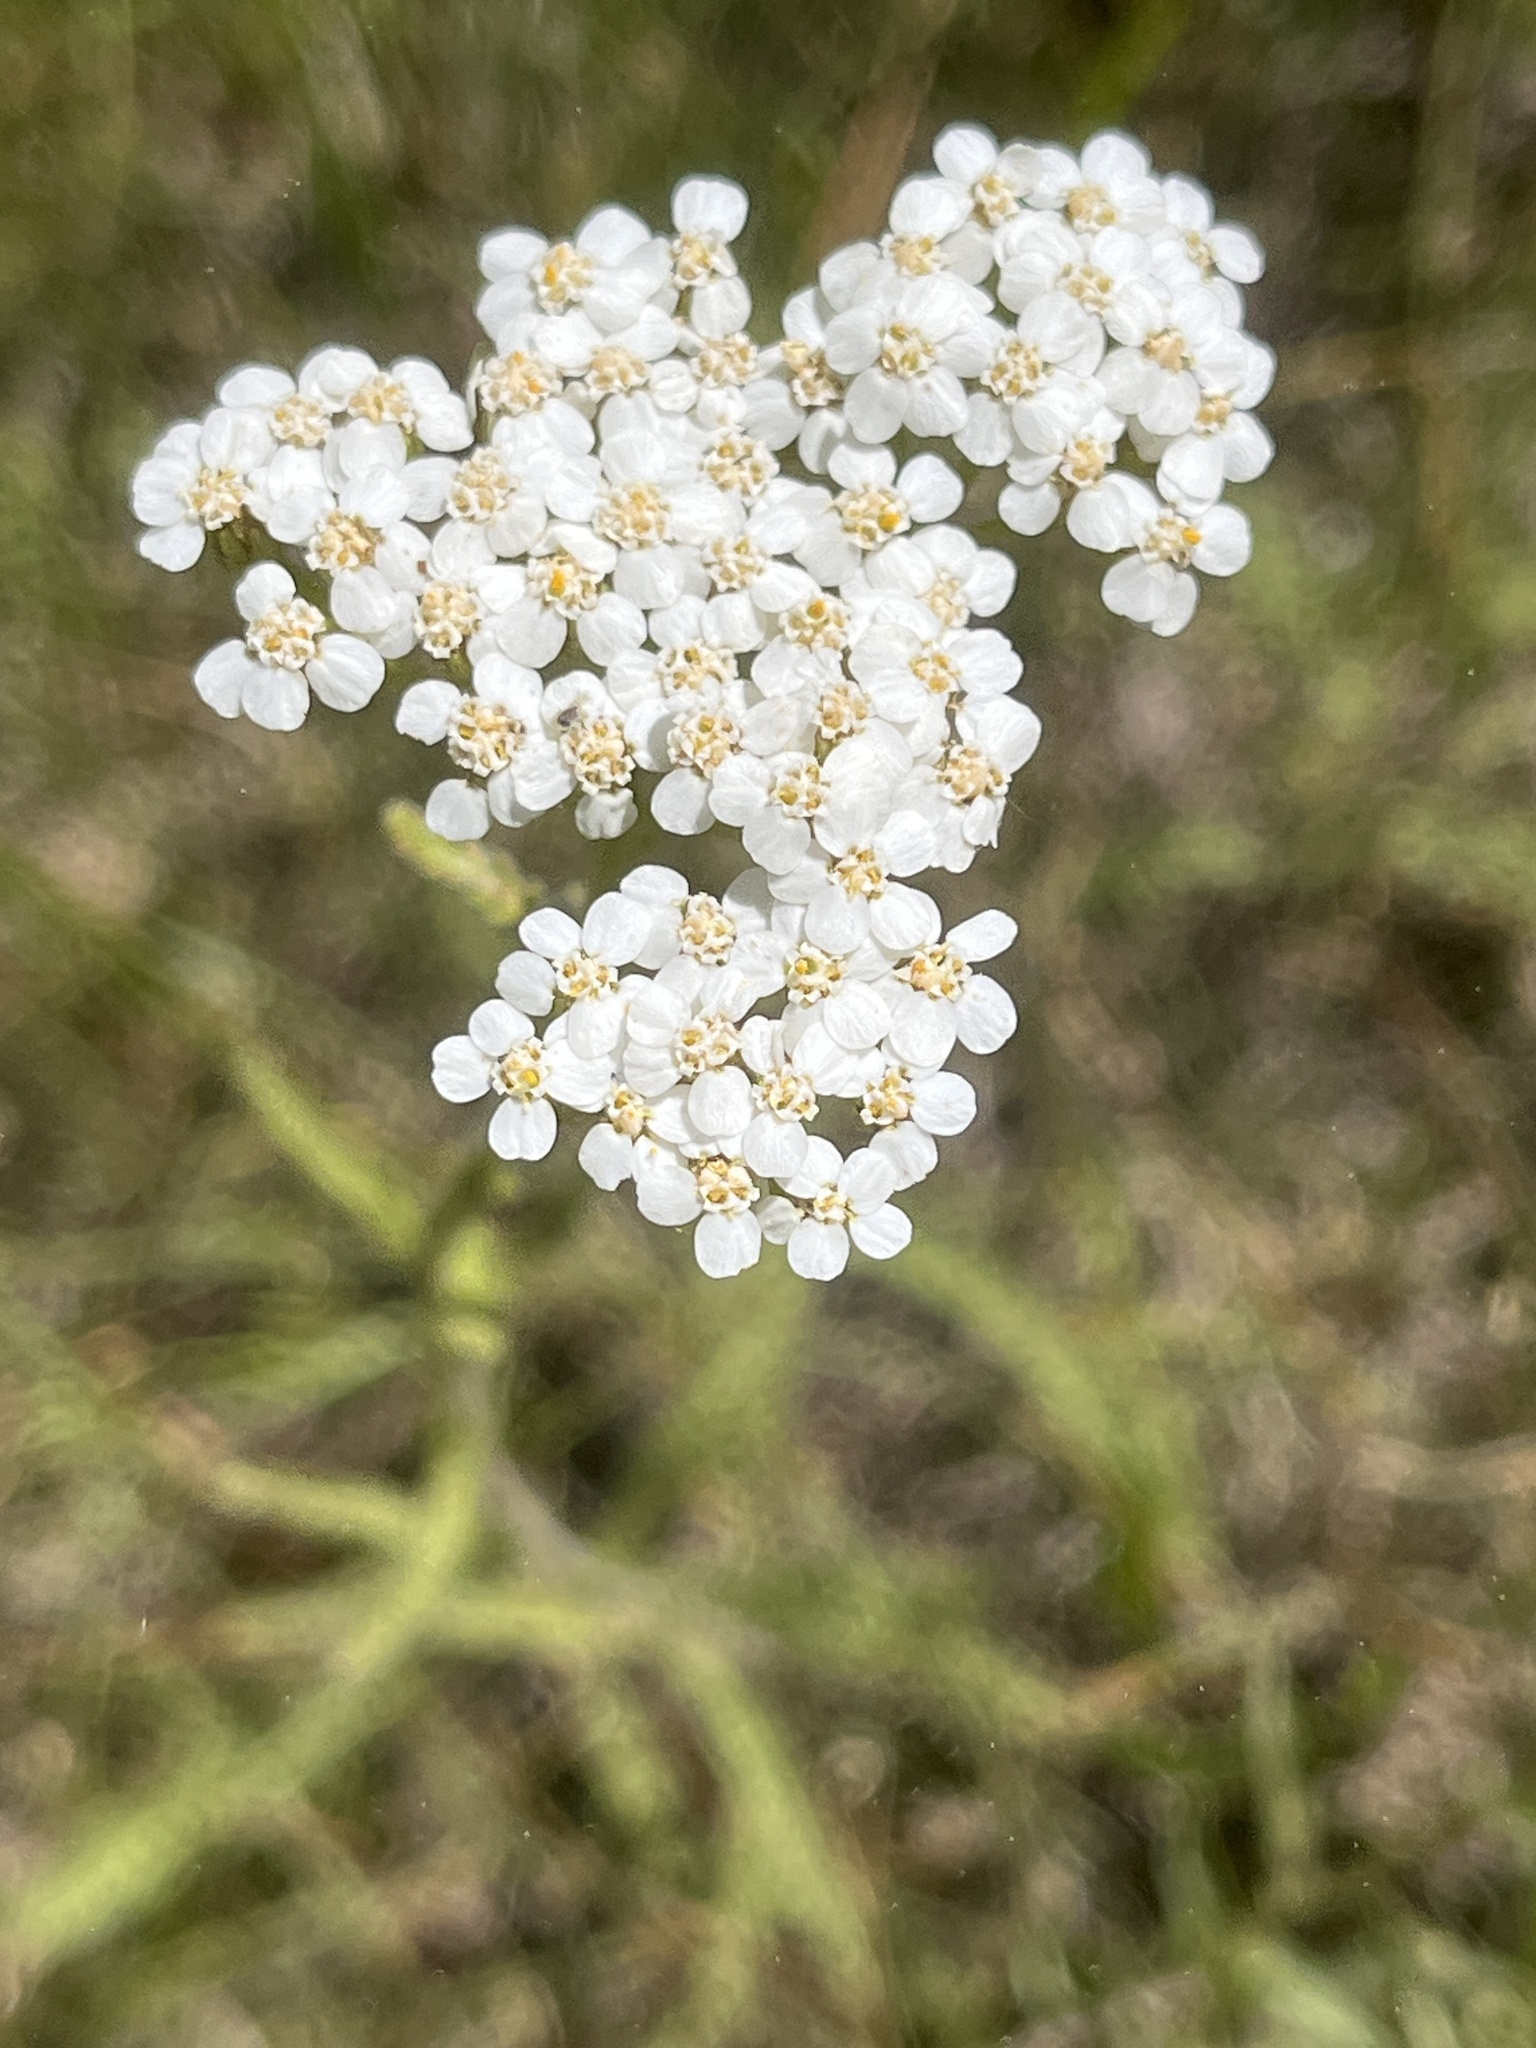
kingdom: Plantae
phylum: Tracheophyta
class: Magnoliopsida
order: Asterales
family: Asteraceae
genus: Achillea
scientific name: Achillea millefolium
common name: Yarrow
